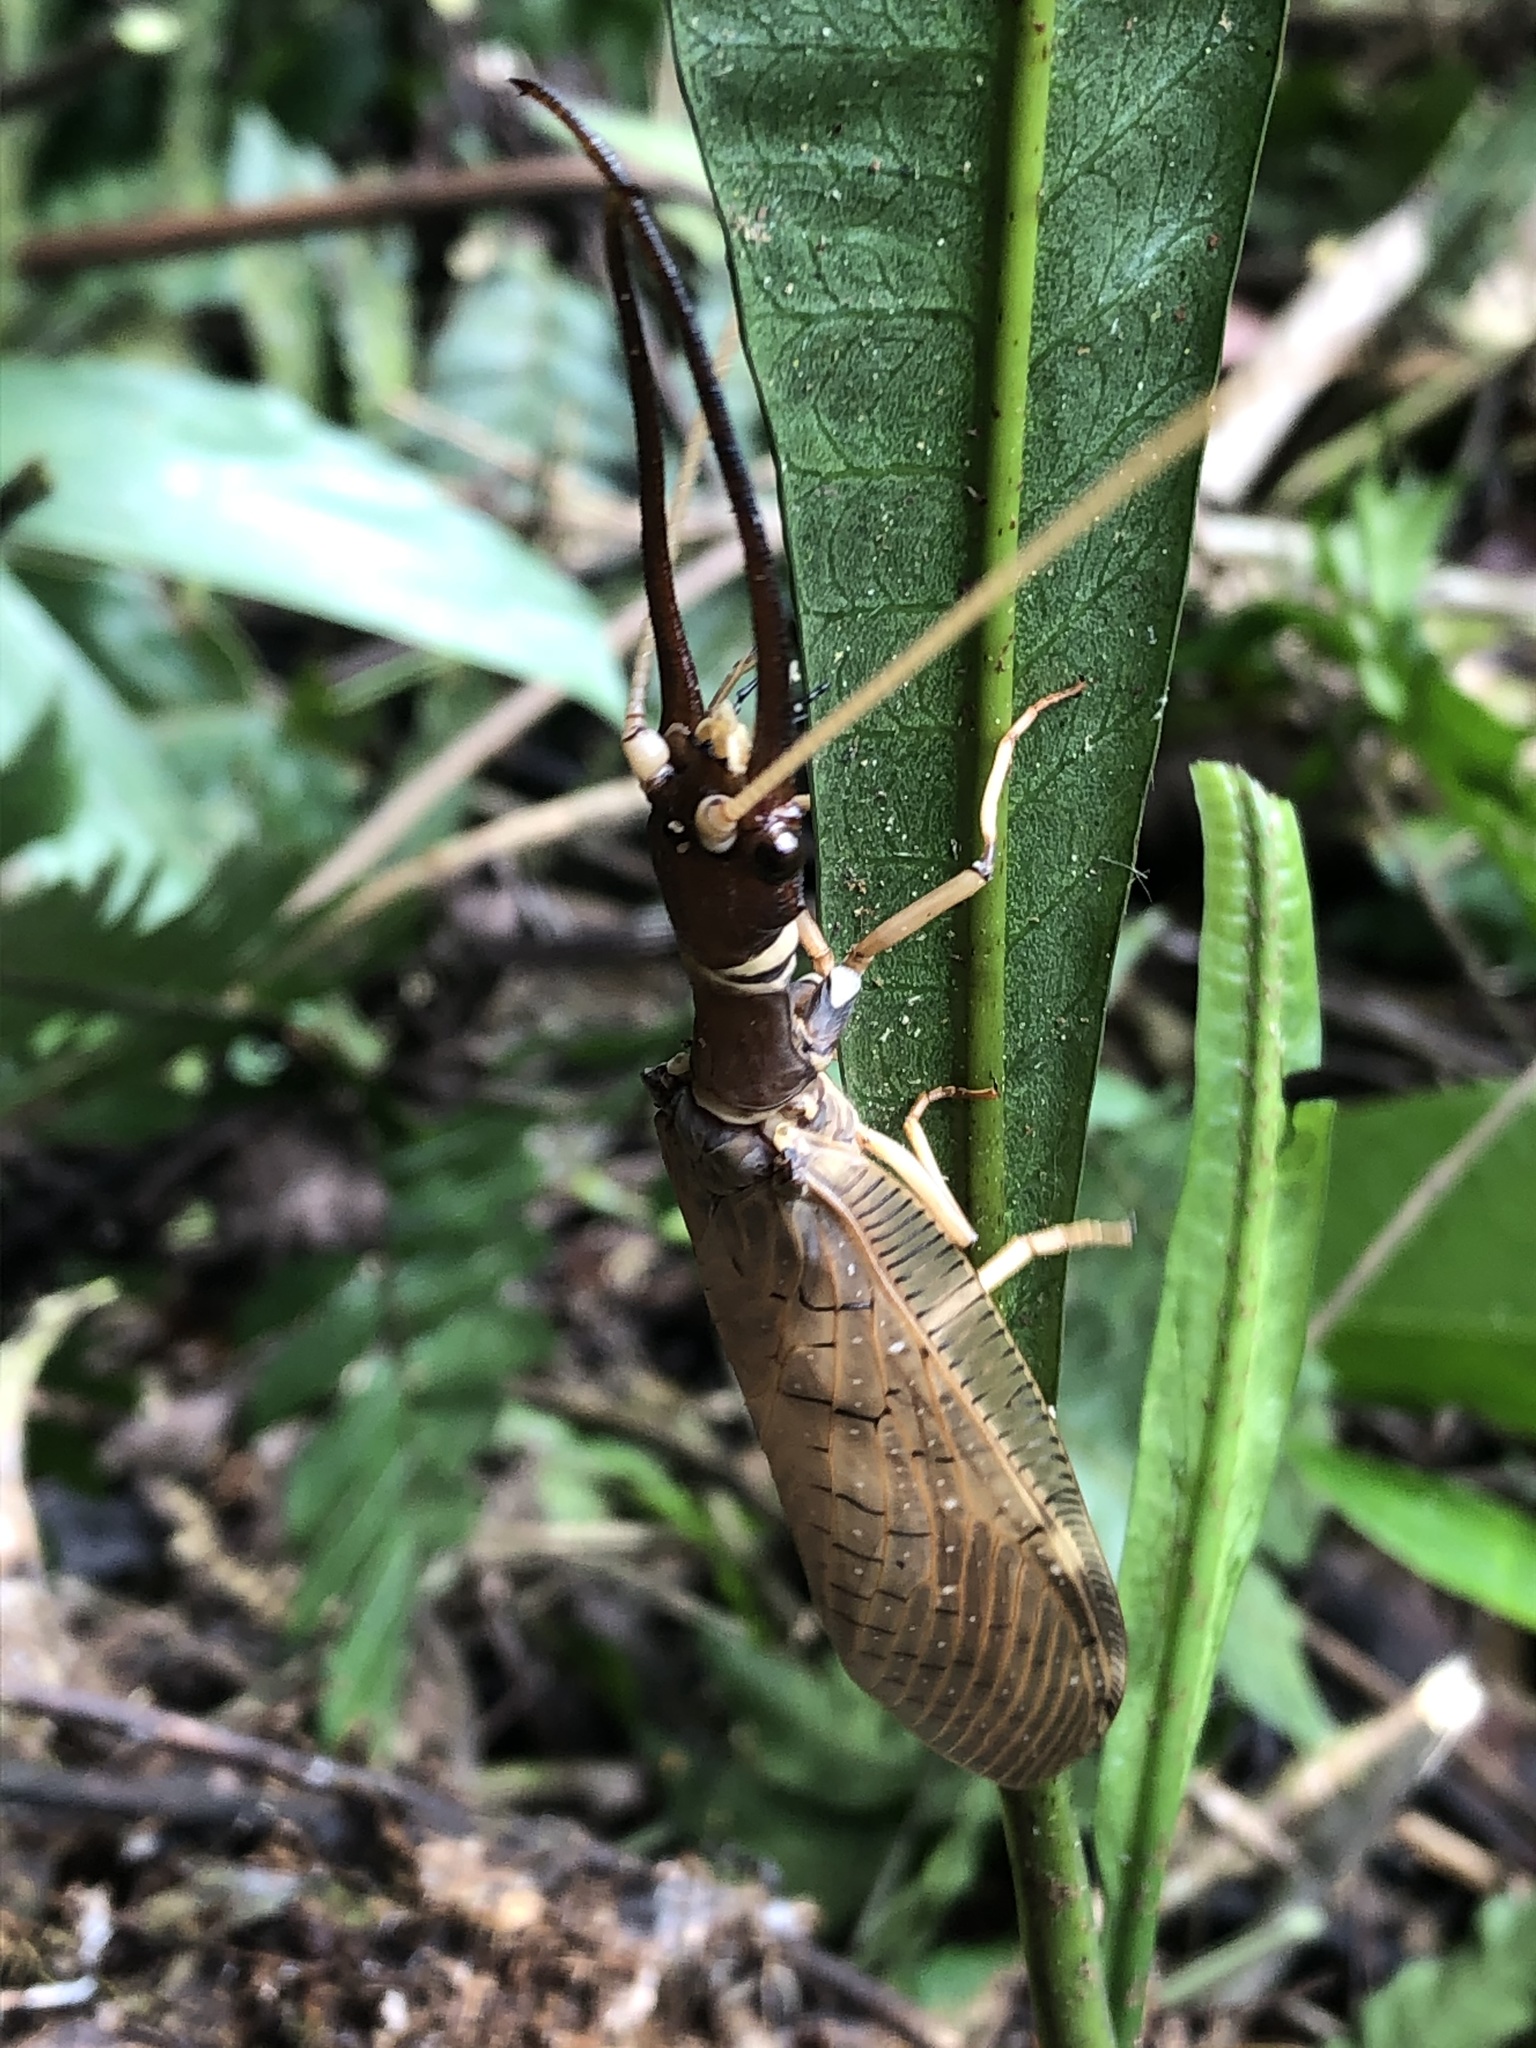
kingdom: Animalia
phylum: Arthropoda
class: Insecta
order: Megaloptera
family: Corydalidae
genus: Corydalus
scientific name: Corydalus peruvianus
